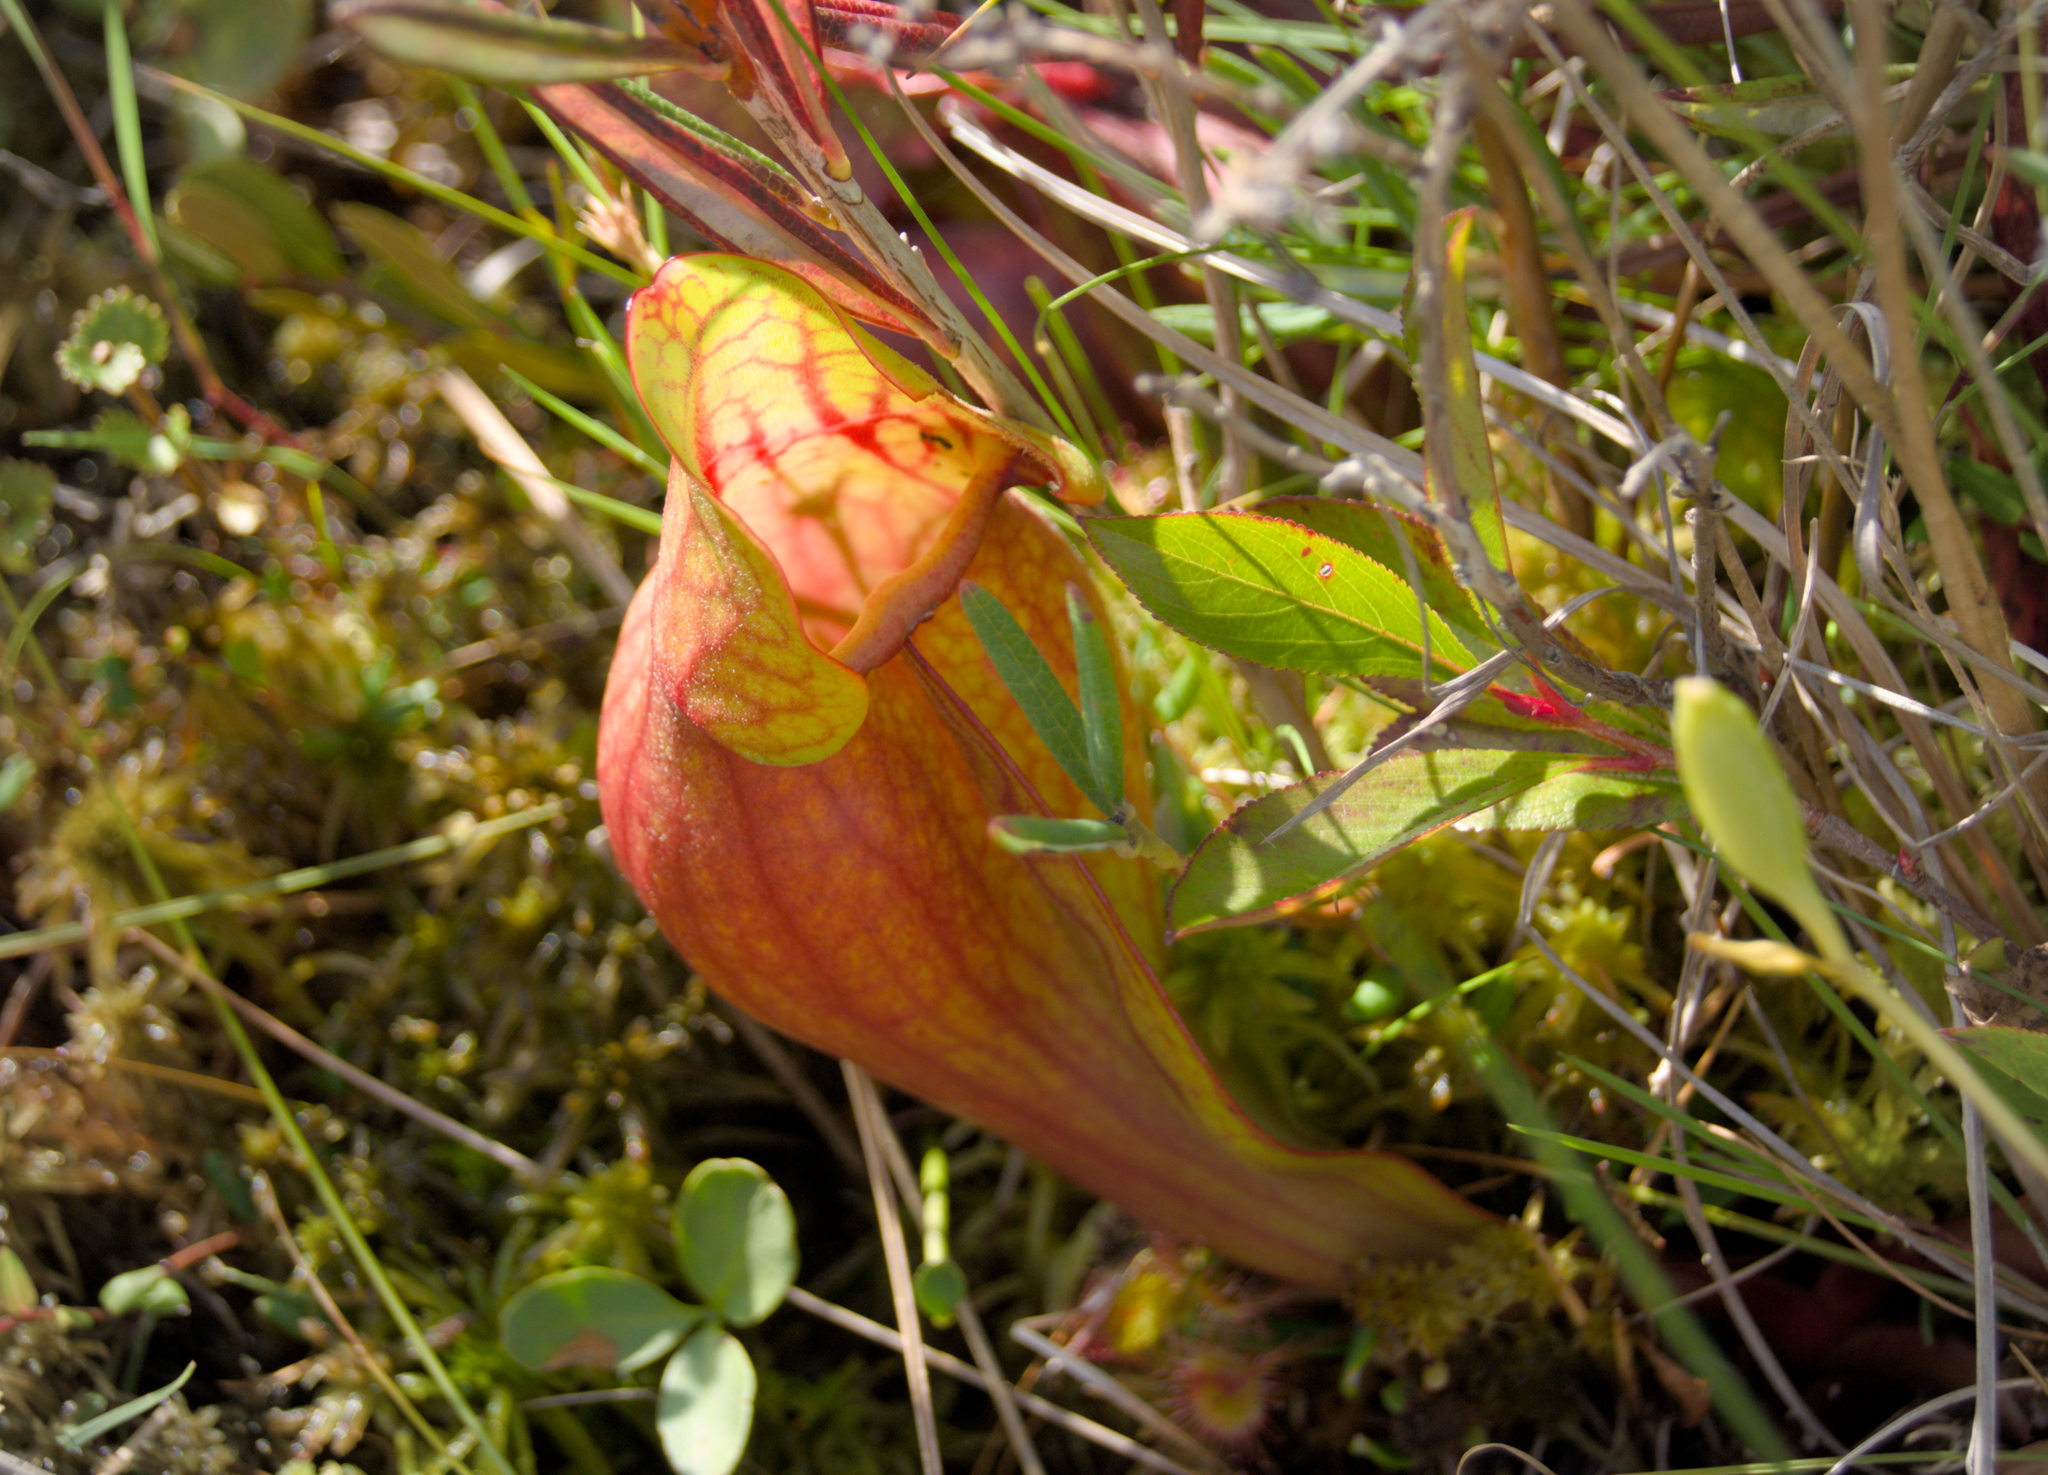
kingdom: Plantae
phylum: Tracheophyta
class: Magnoliopsida
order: Ericales
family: Sarraceniaceae
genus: Sarracenia
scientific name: Sarracenia purpurea
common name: Pitcherplant
